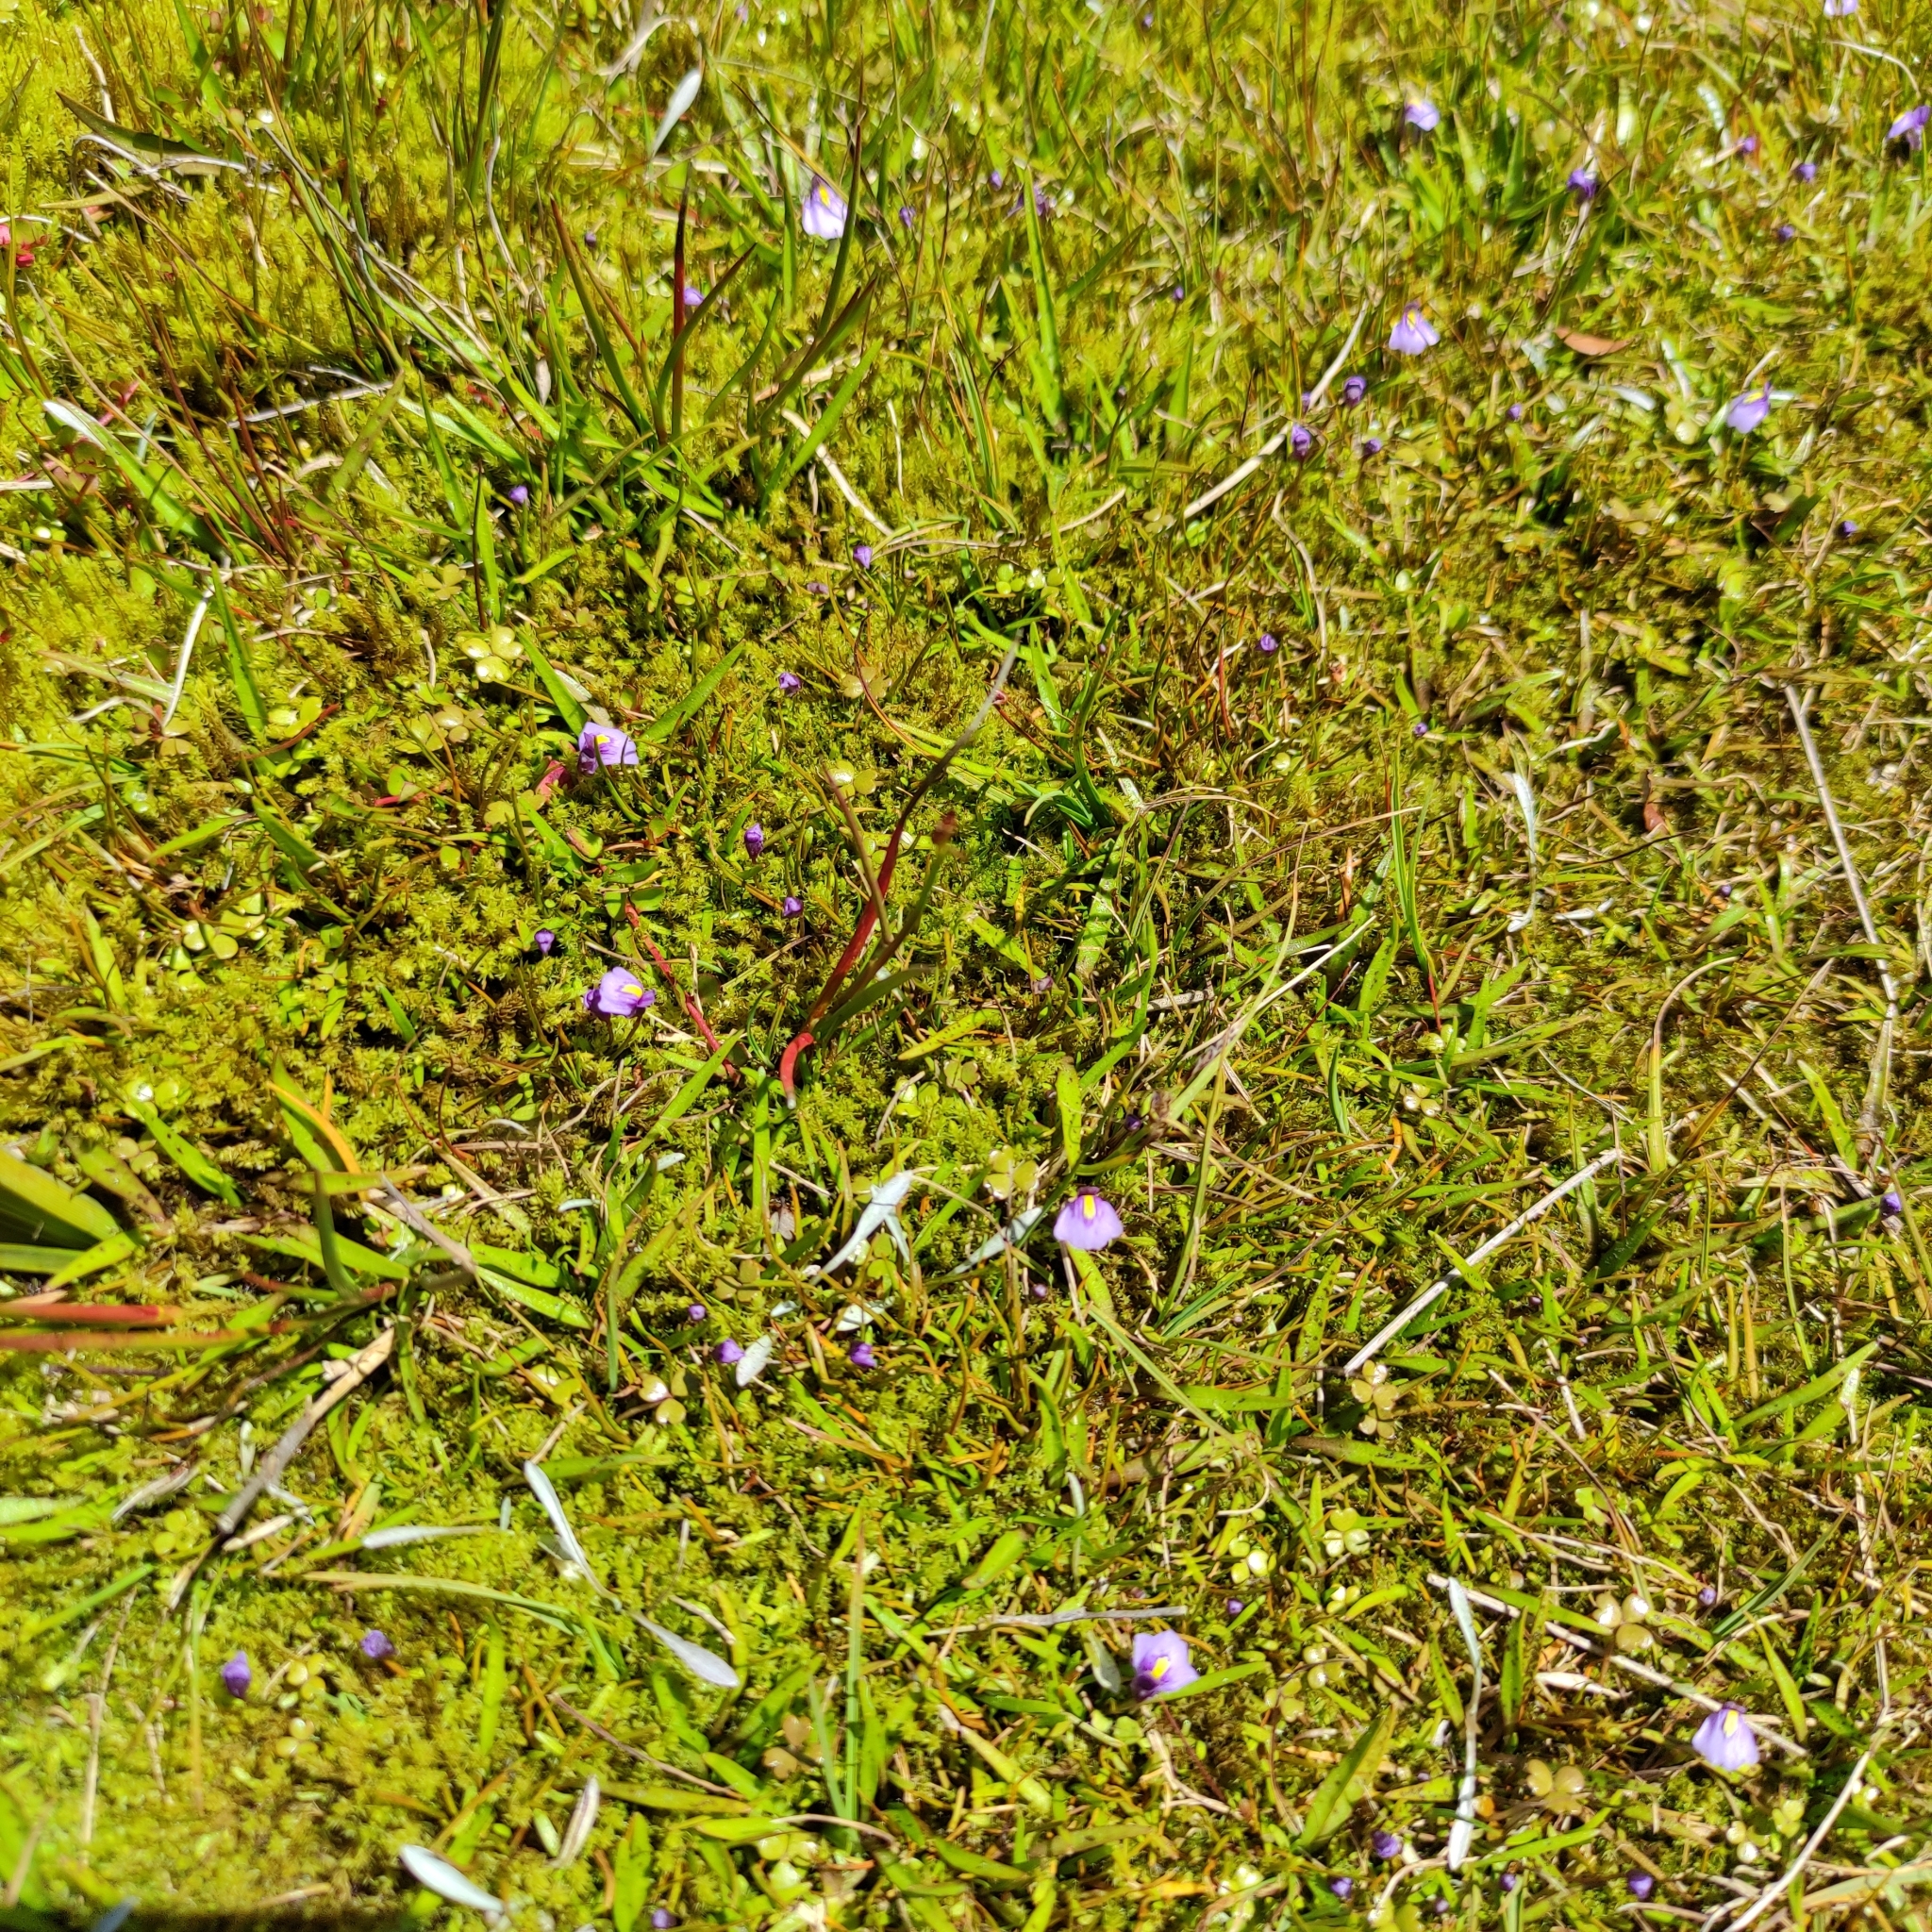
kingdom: Plantae
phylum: Tracheophyta
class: Magnoliopsida
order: Lamiales
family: Lentibulariaceae
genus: Utricularia
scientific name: Utricularia dichotoma
